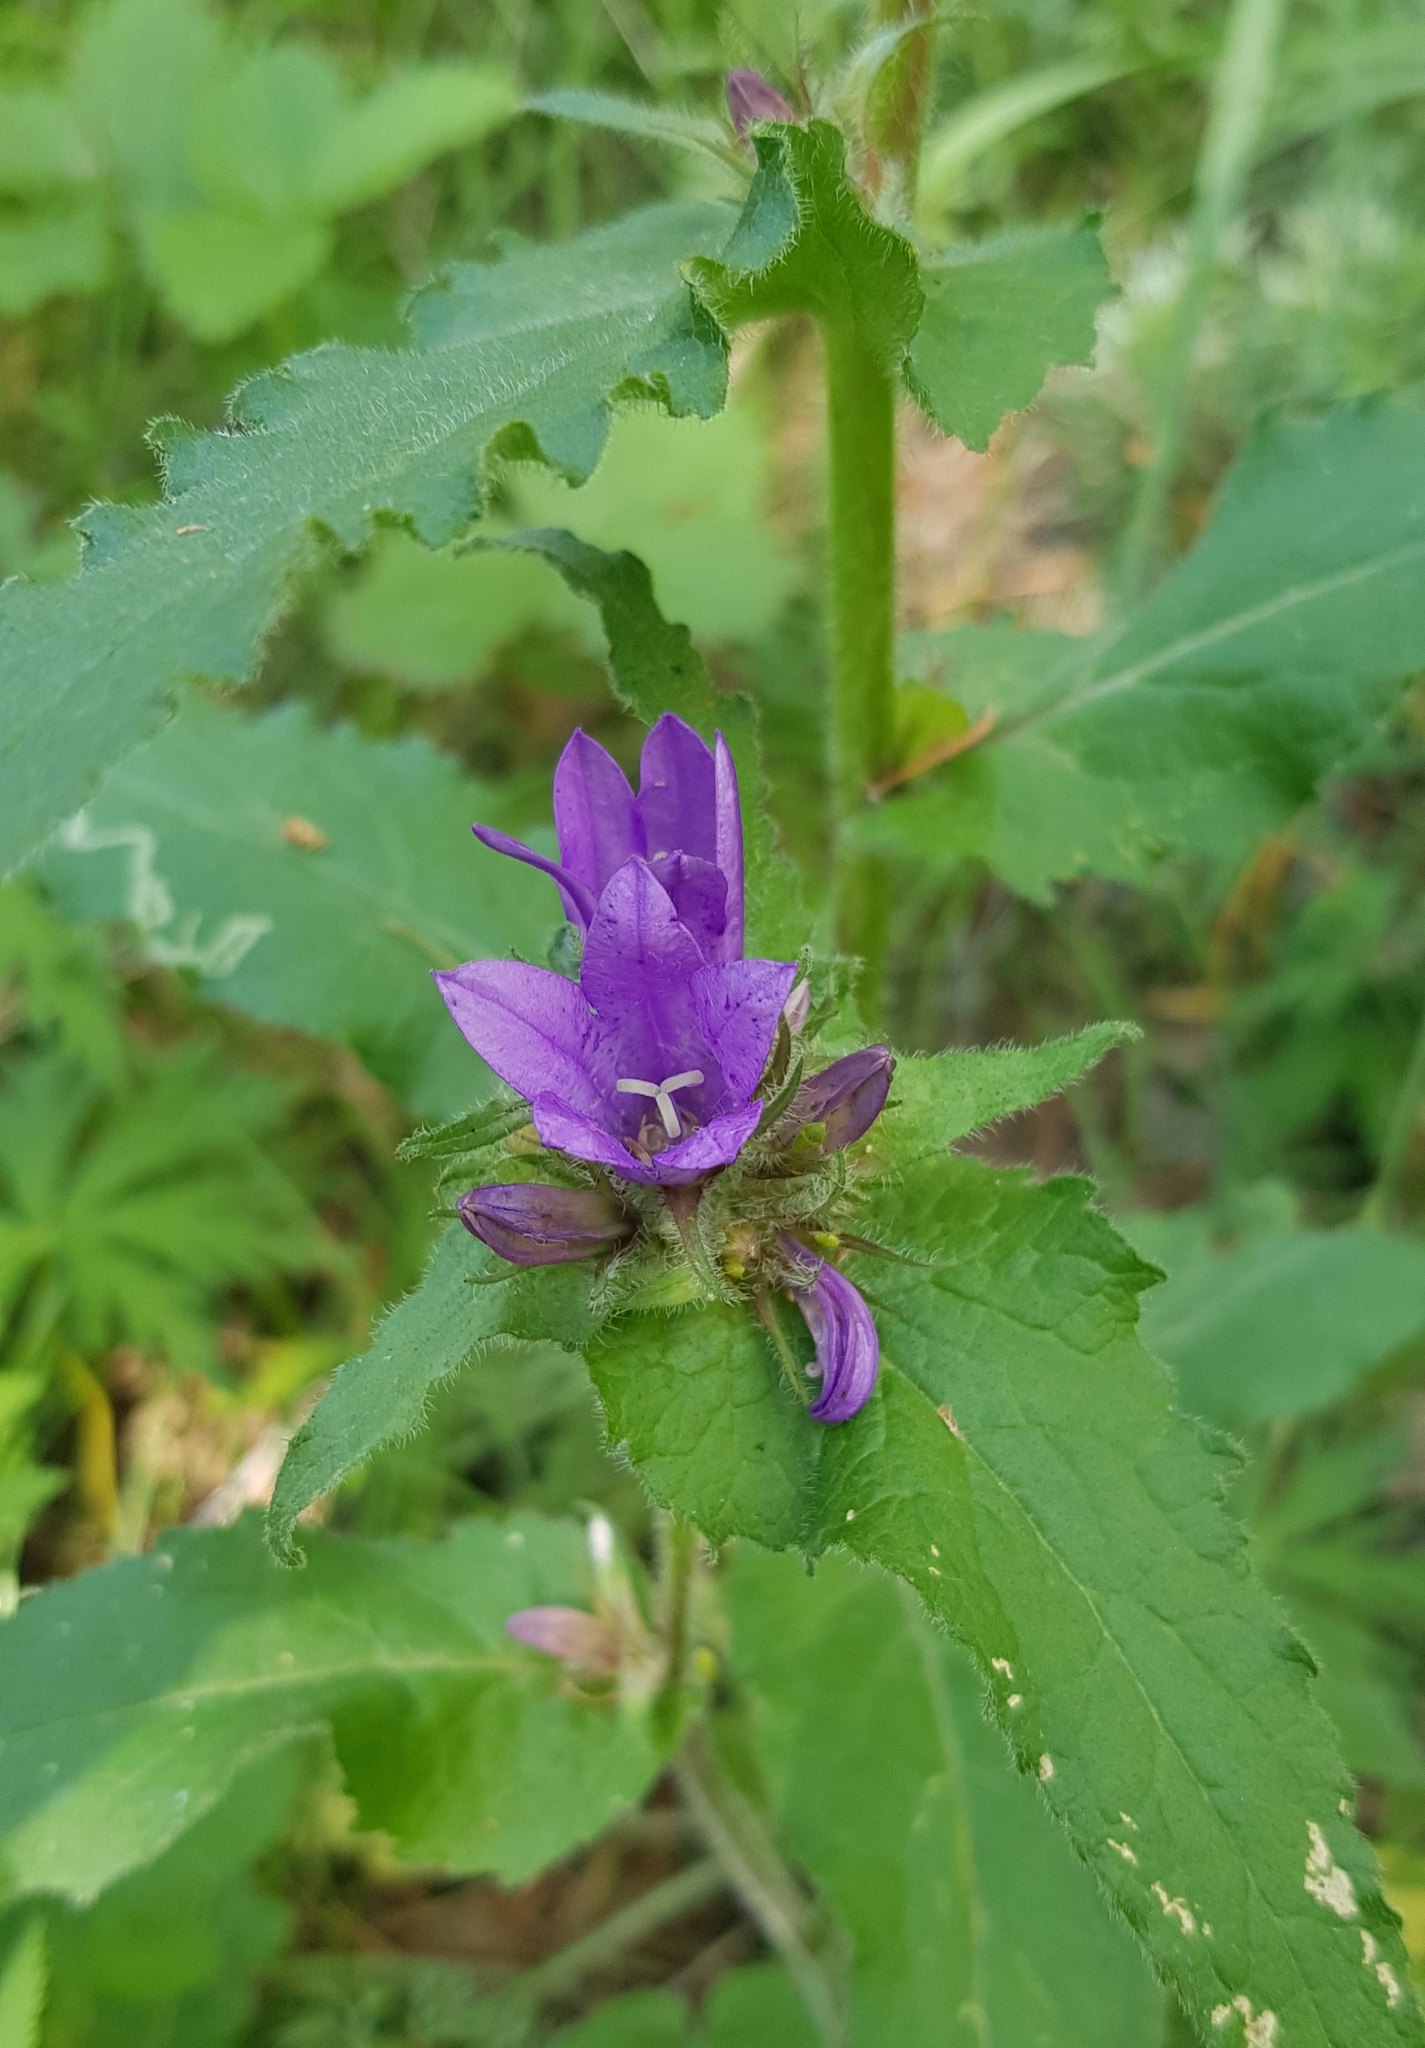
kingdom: Plantae
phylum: Tracheophyta
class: Magnoliopsida
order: Asterales
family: Campanulaceae
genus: Campanula
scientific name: Campanula glomerata
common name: Clustered bellflower
